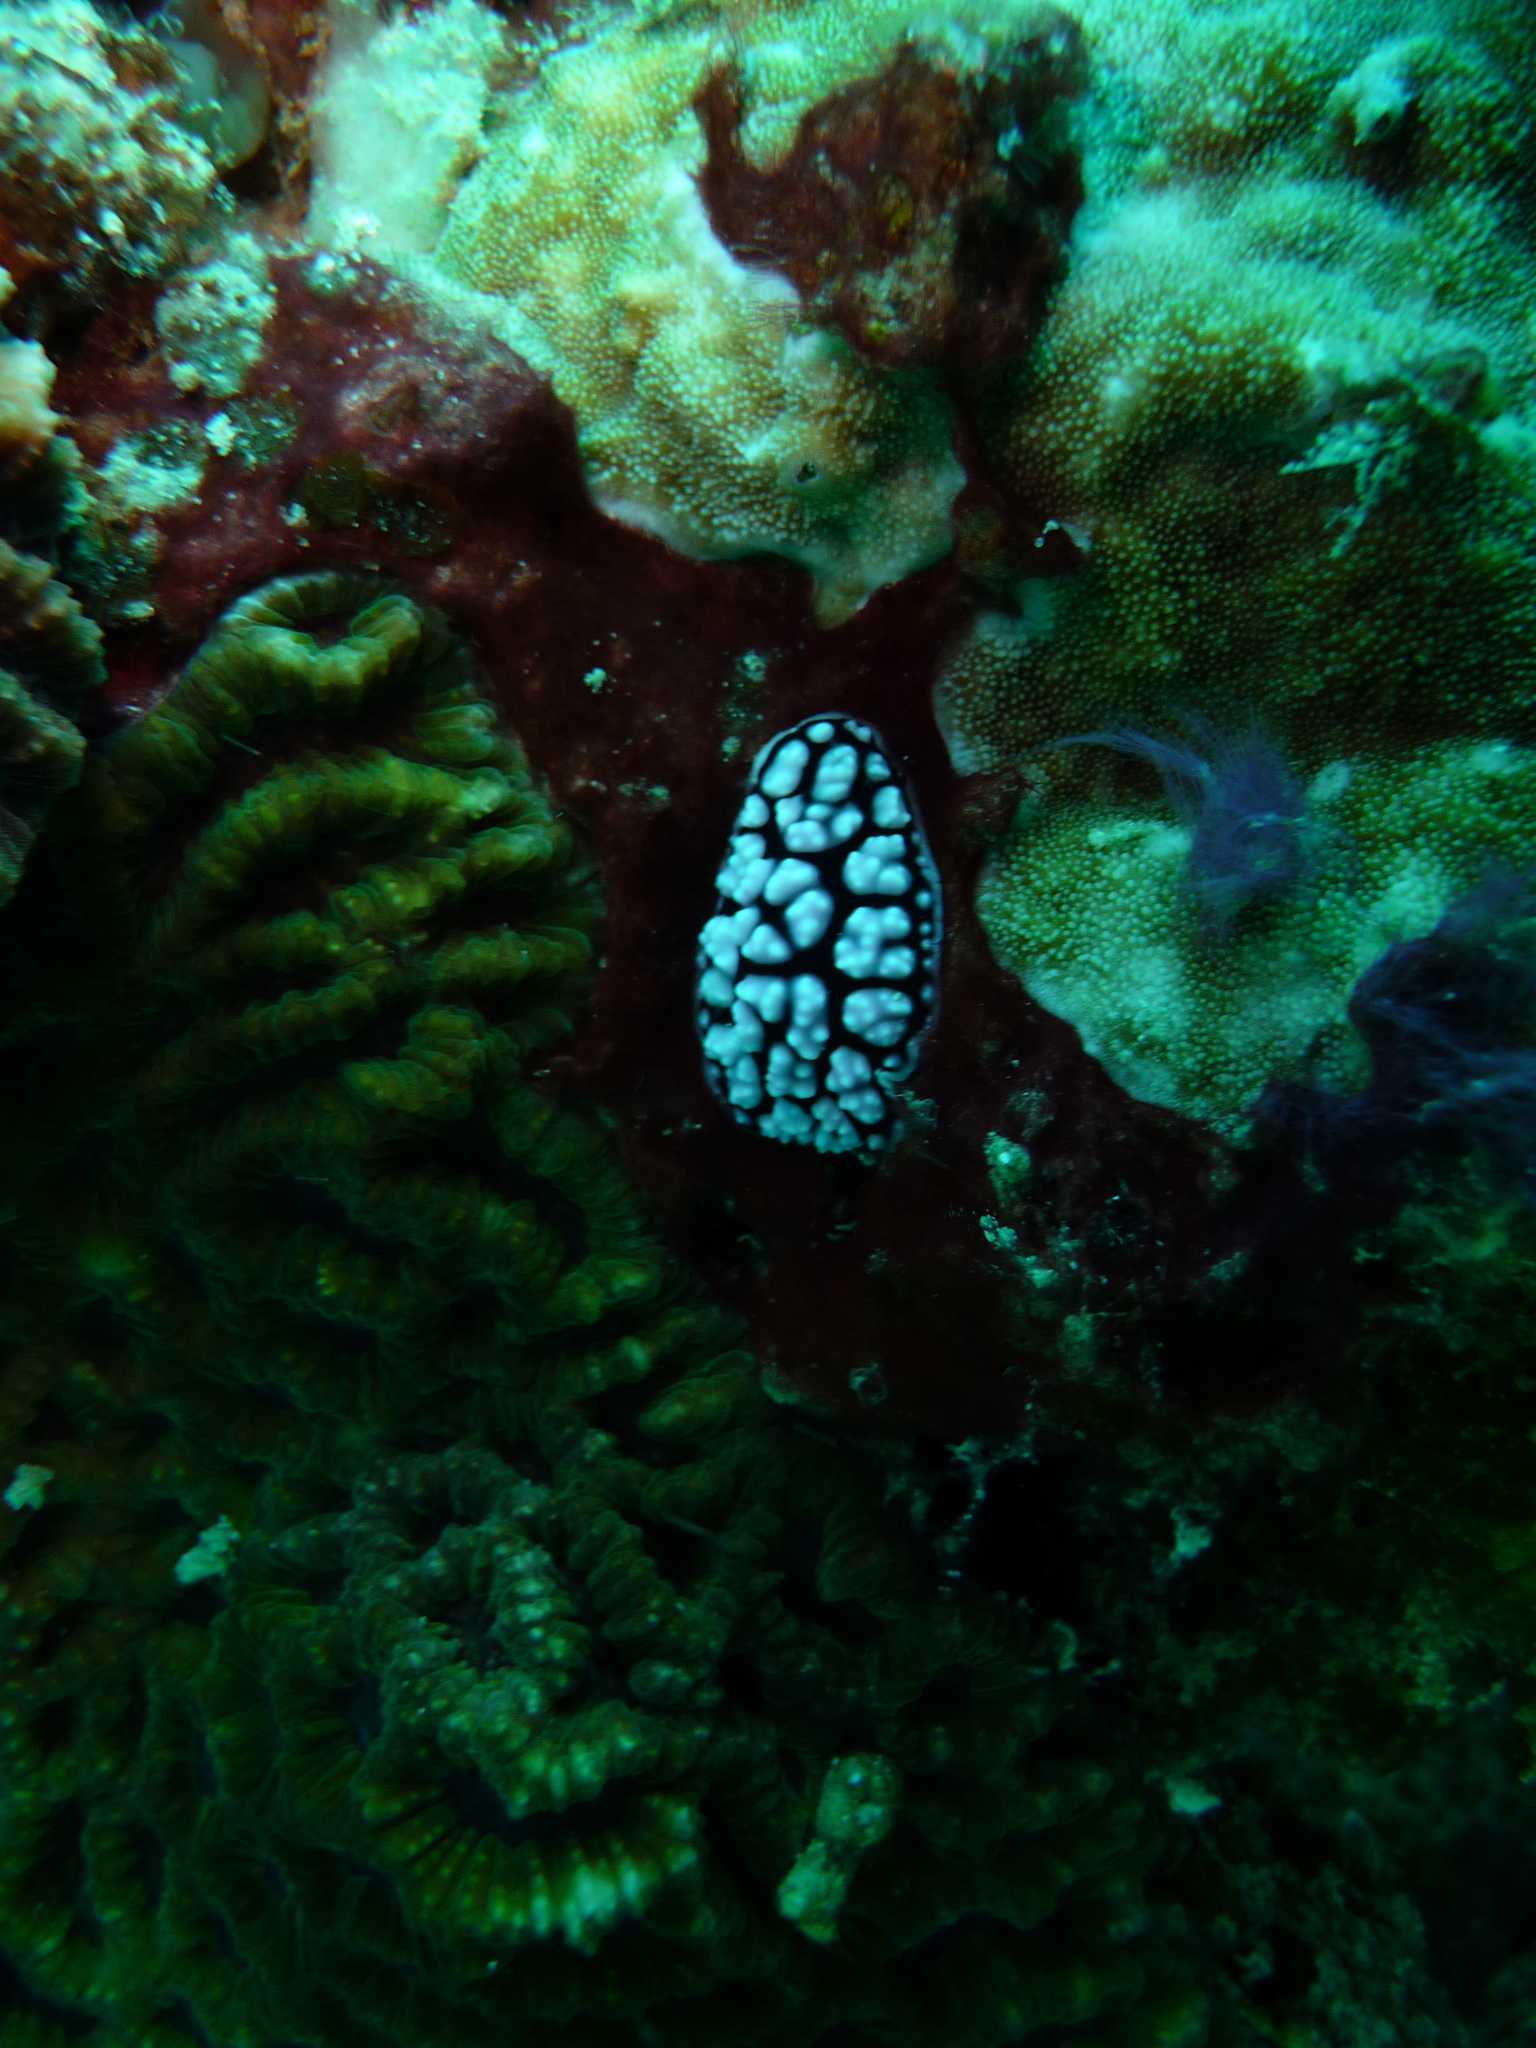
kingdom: Animalia
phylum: Mollusca
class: Gastropoda
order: Nudibranchia
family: Phyllidiidae
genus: Phyllidiella
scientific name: Phyllidiella pustulosa
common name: Pustular phyllidia
